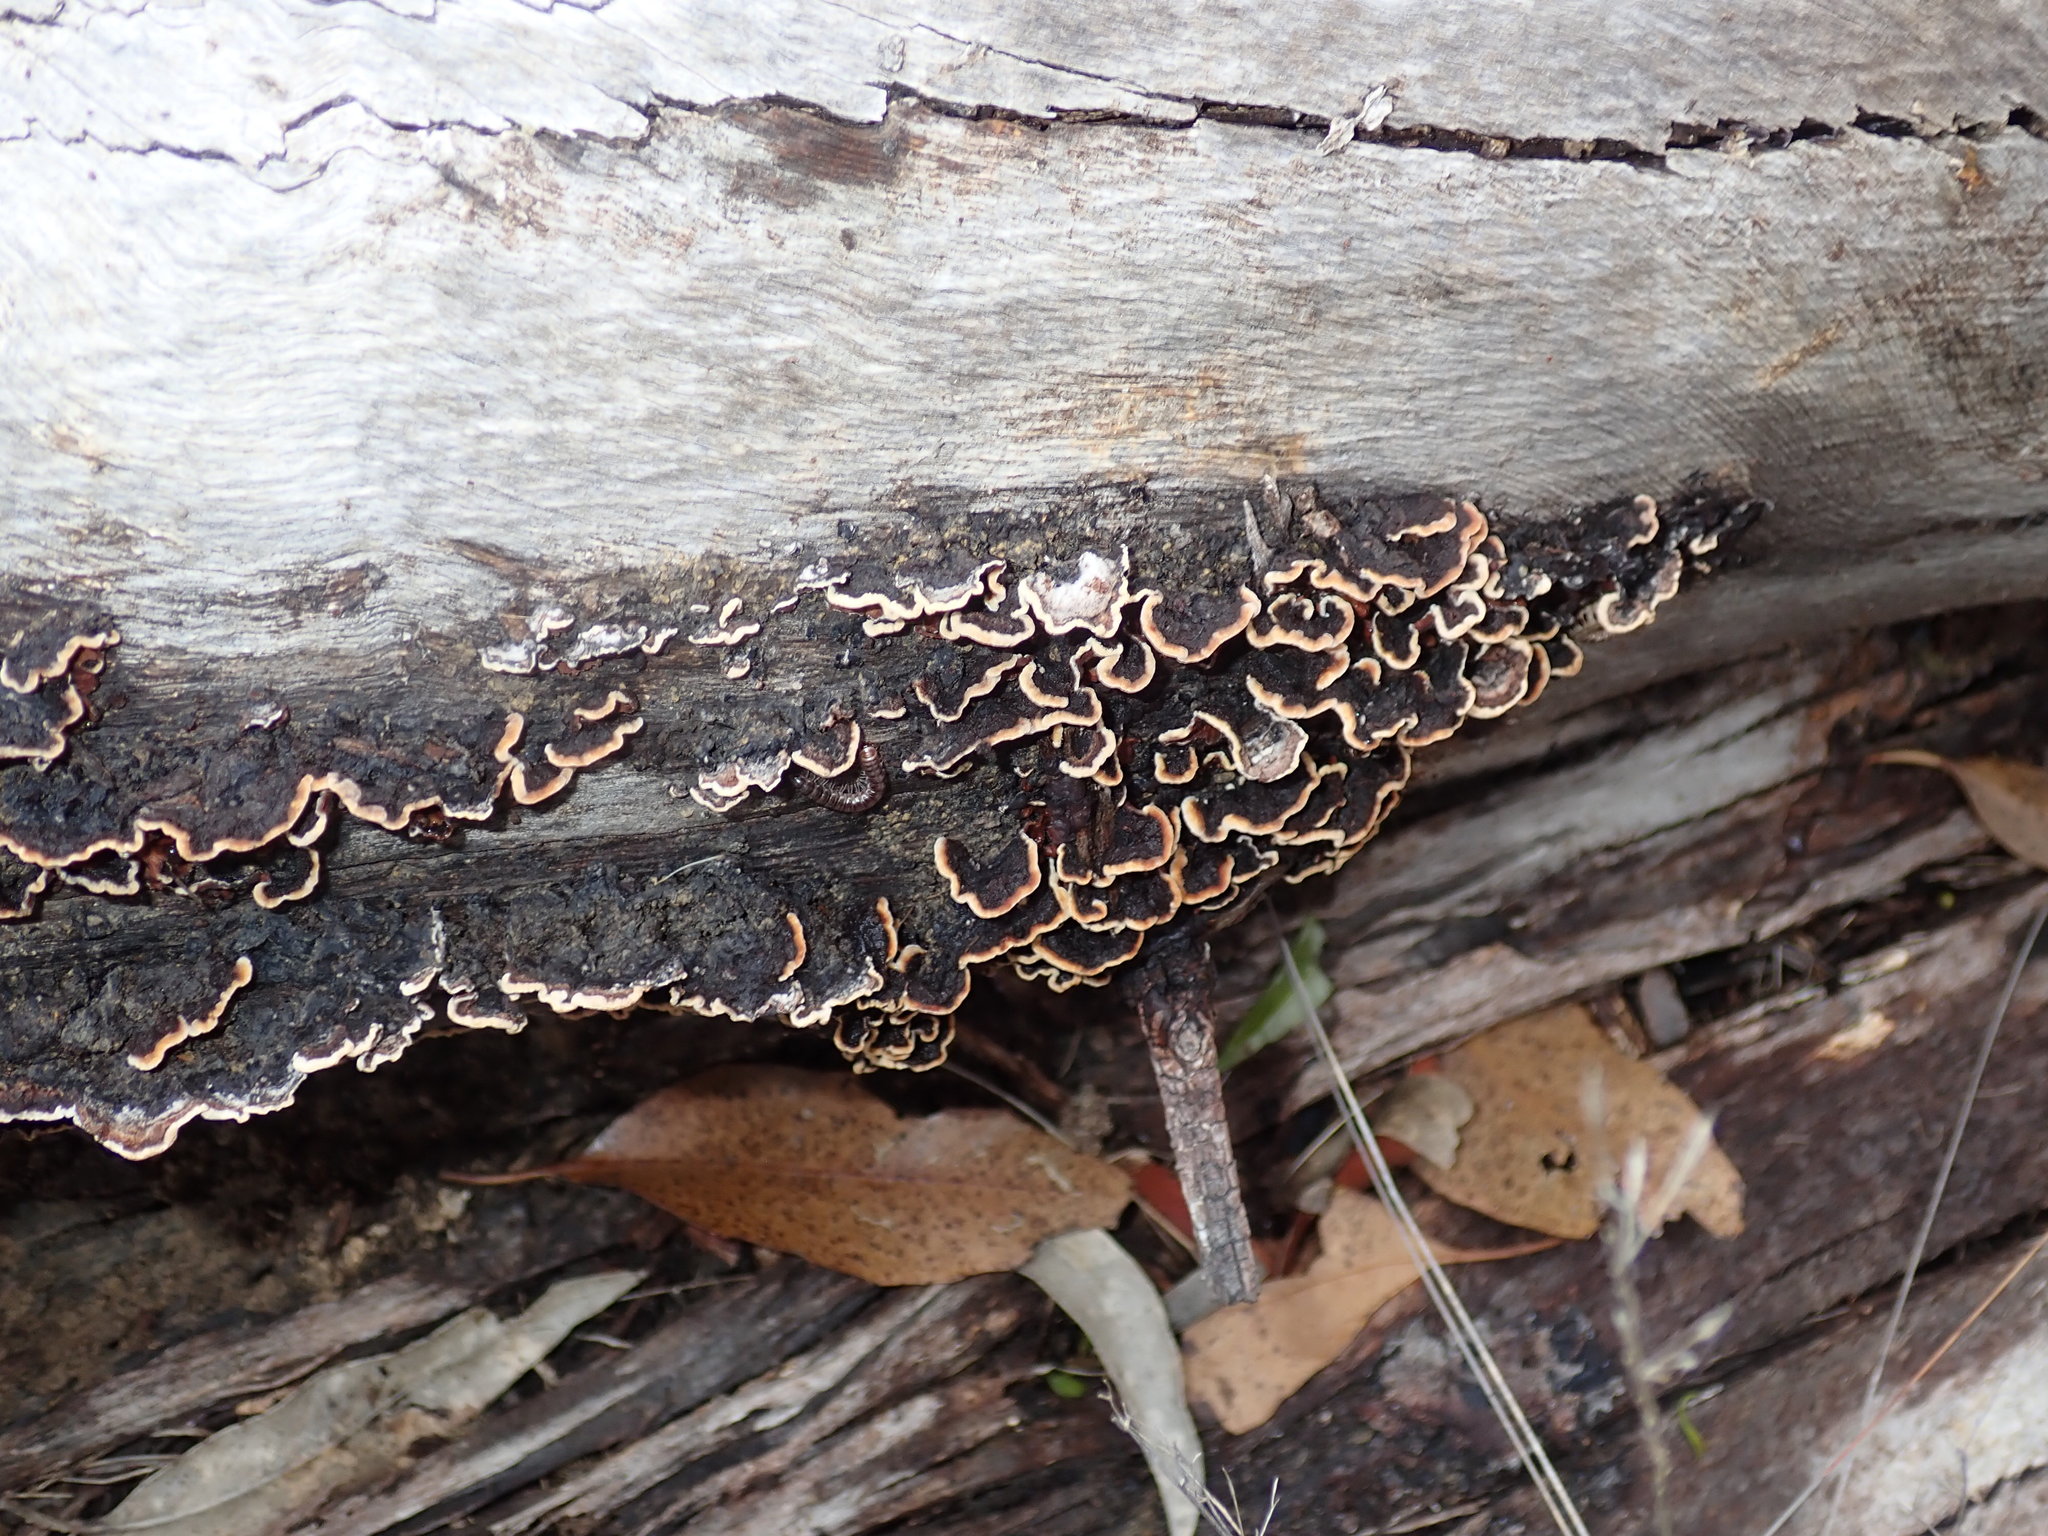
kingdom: Fungi
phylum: Basidiomycota
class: Agaricomycetes
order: Corticiales
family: Punctulariaceae
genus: Punctularia
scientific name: Punctularia strigosozonata
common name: White-rot fungus
